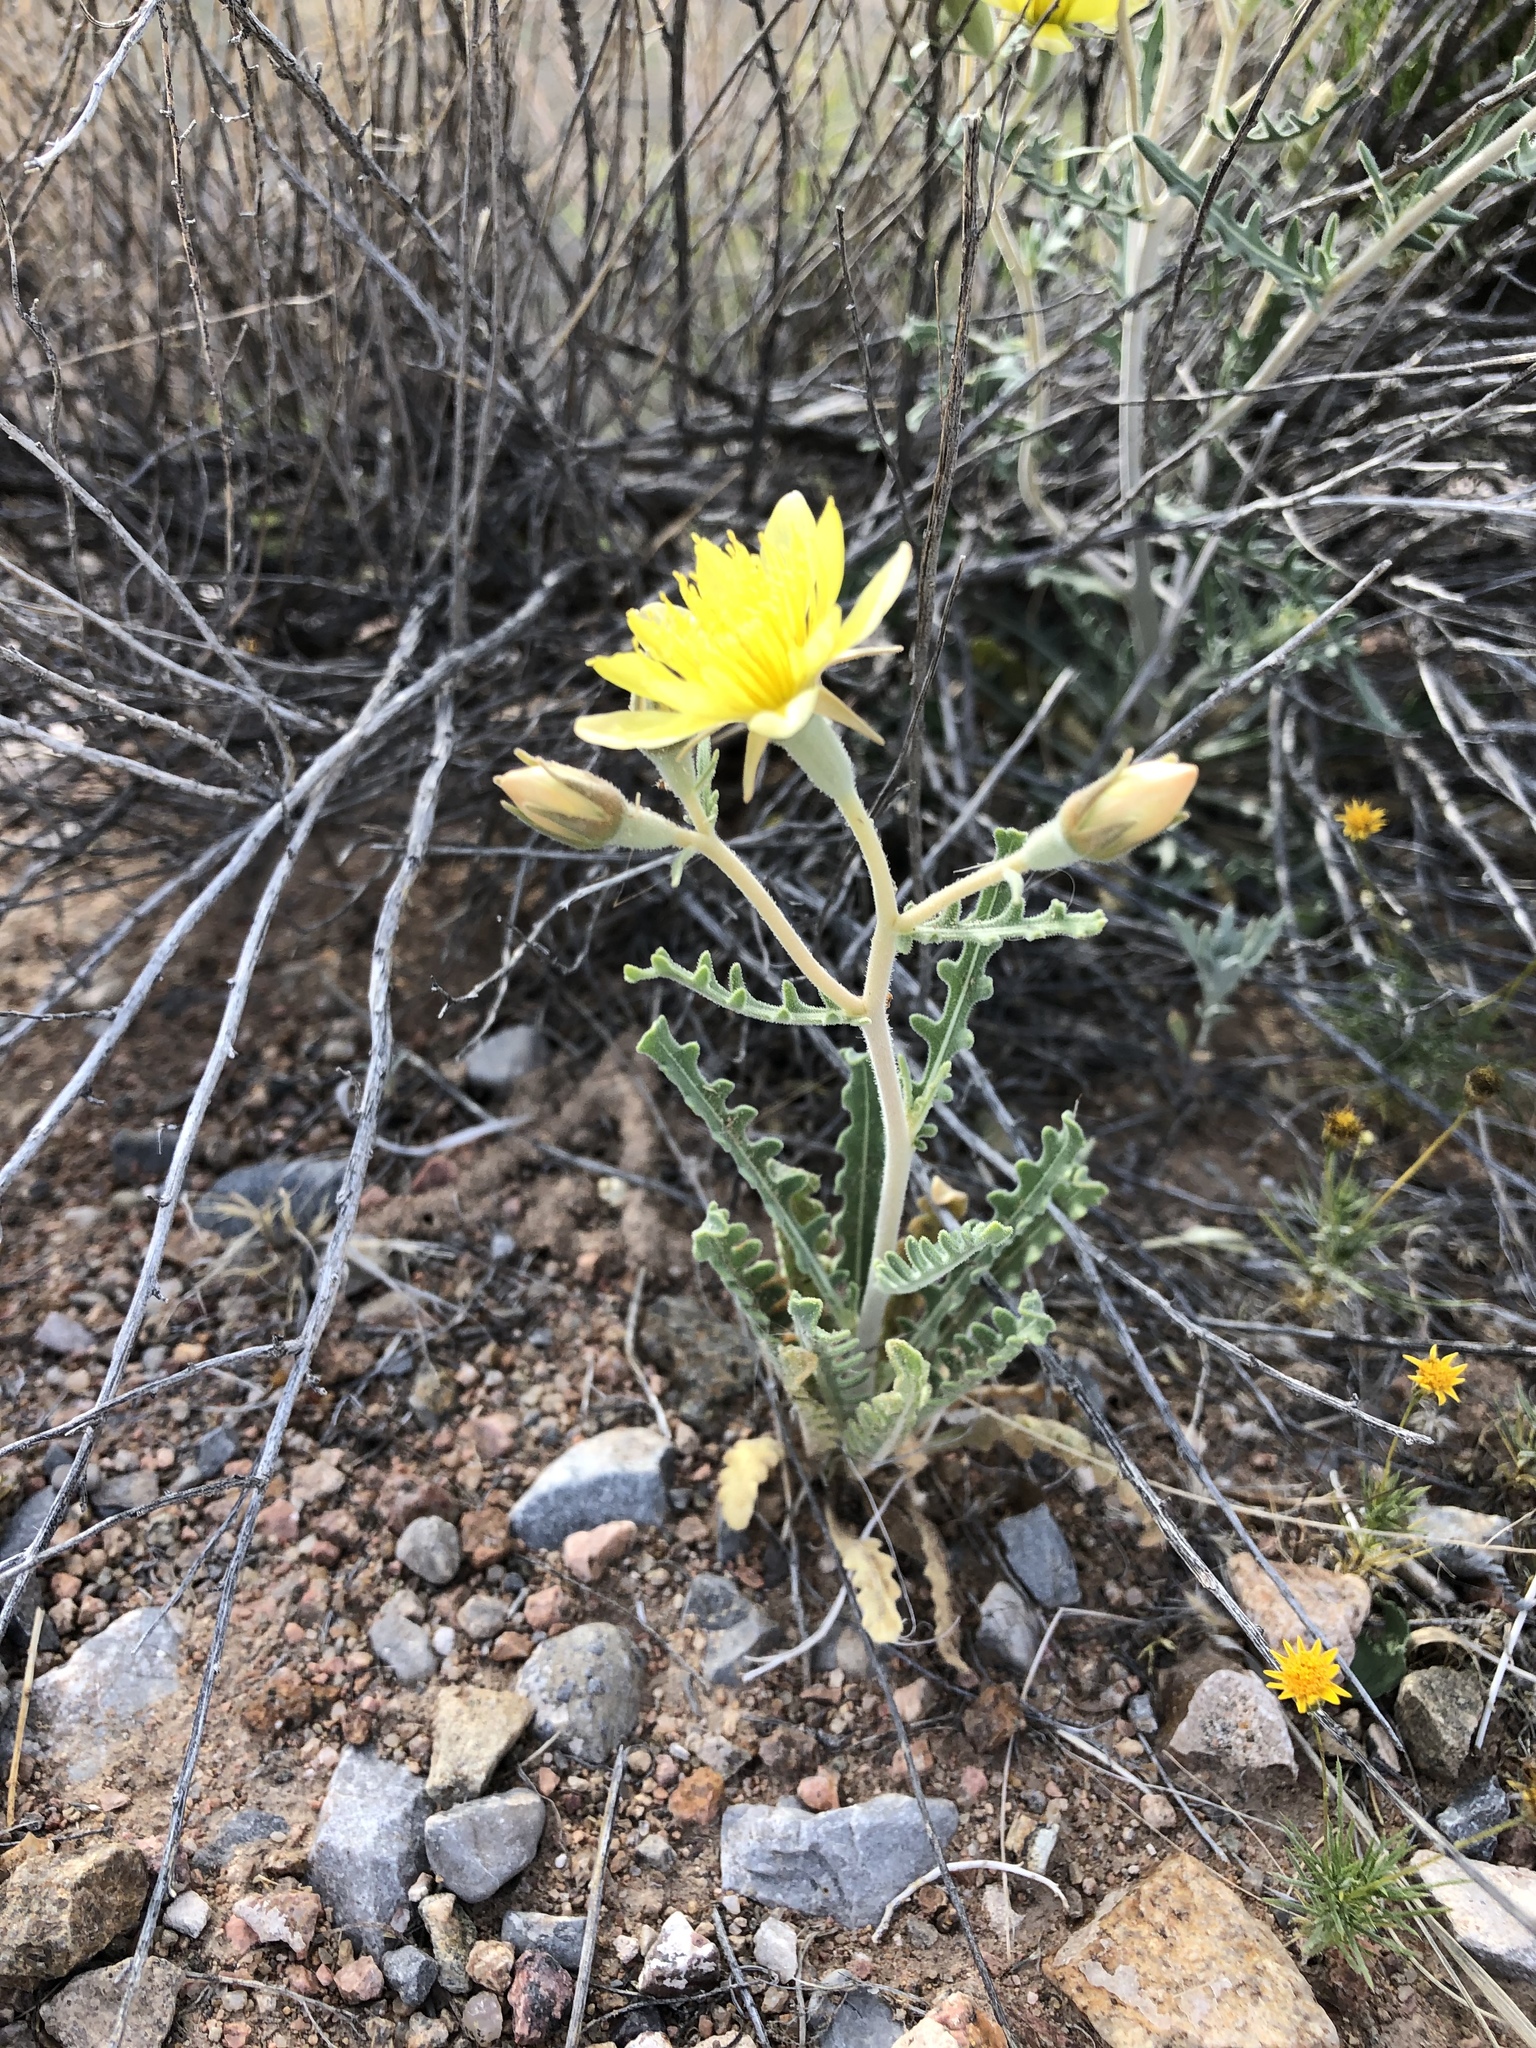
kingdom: Plantae
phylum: Tracheophyta
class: Magnoliopsida
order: Cornales
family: Loasaceae
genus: Mentzelia
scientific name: Mentzelia procera
